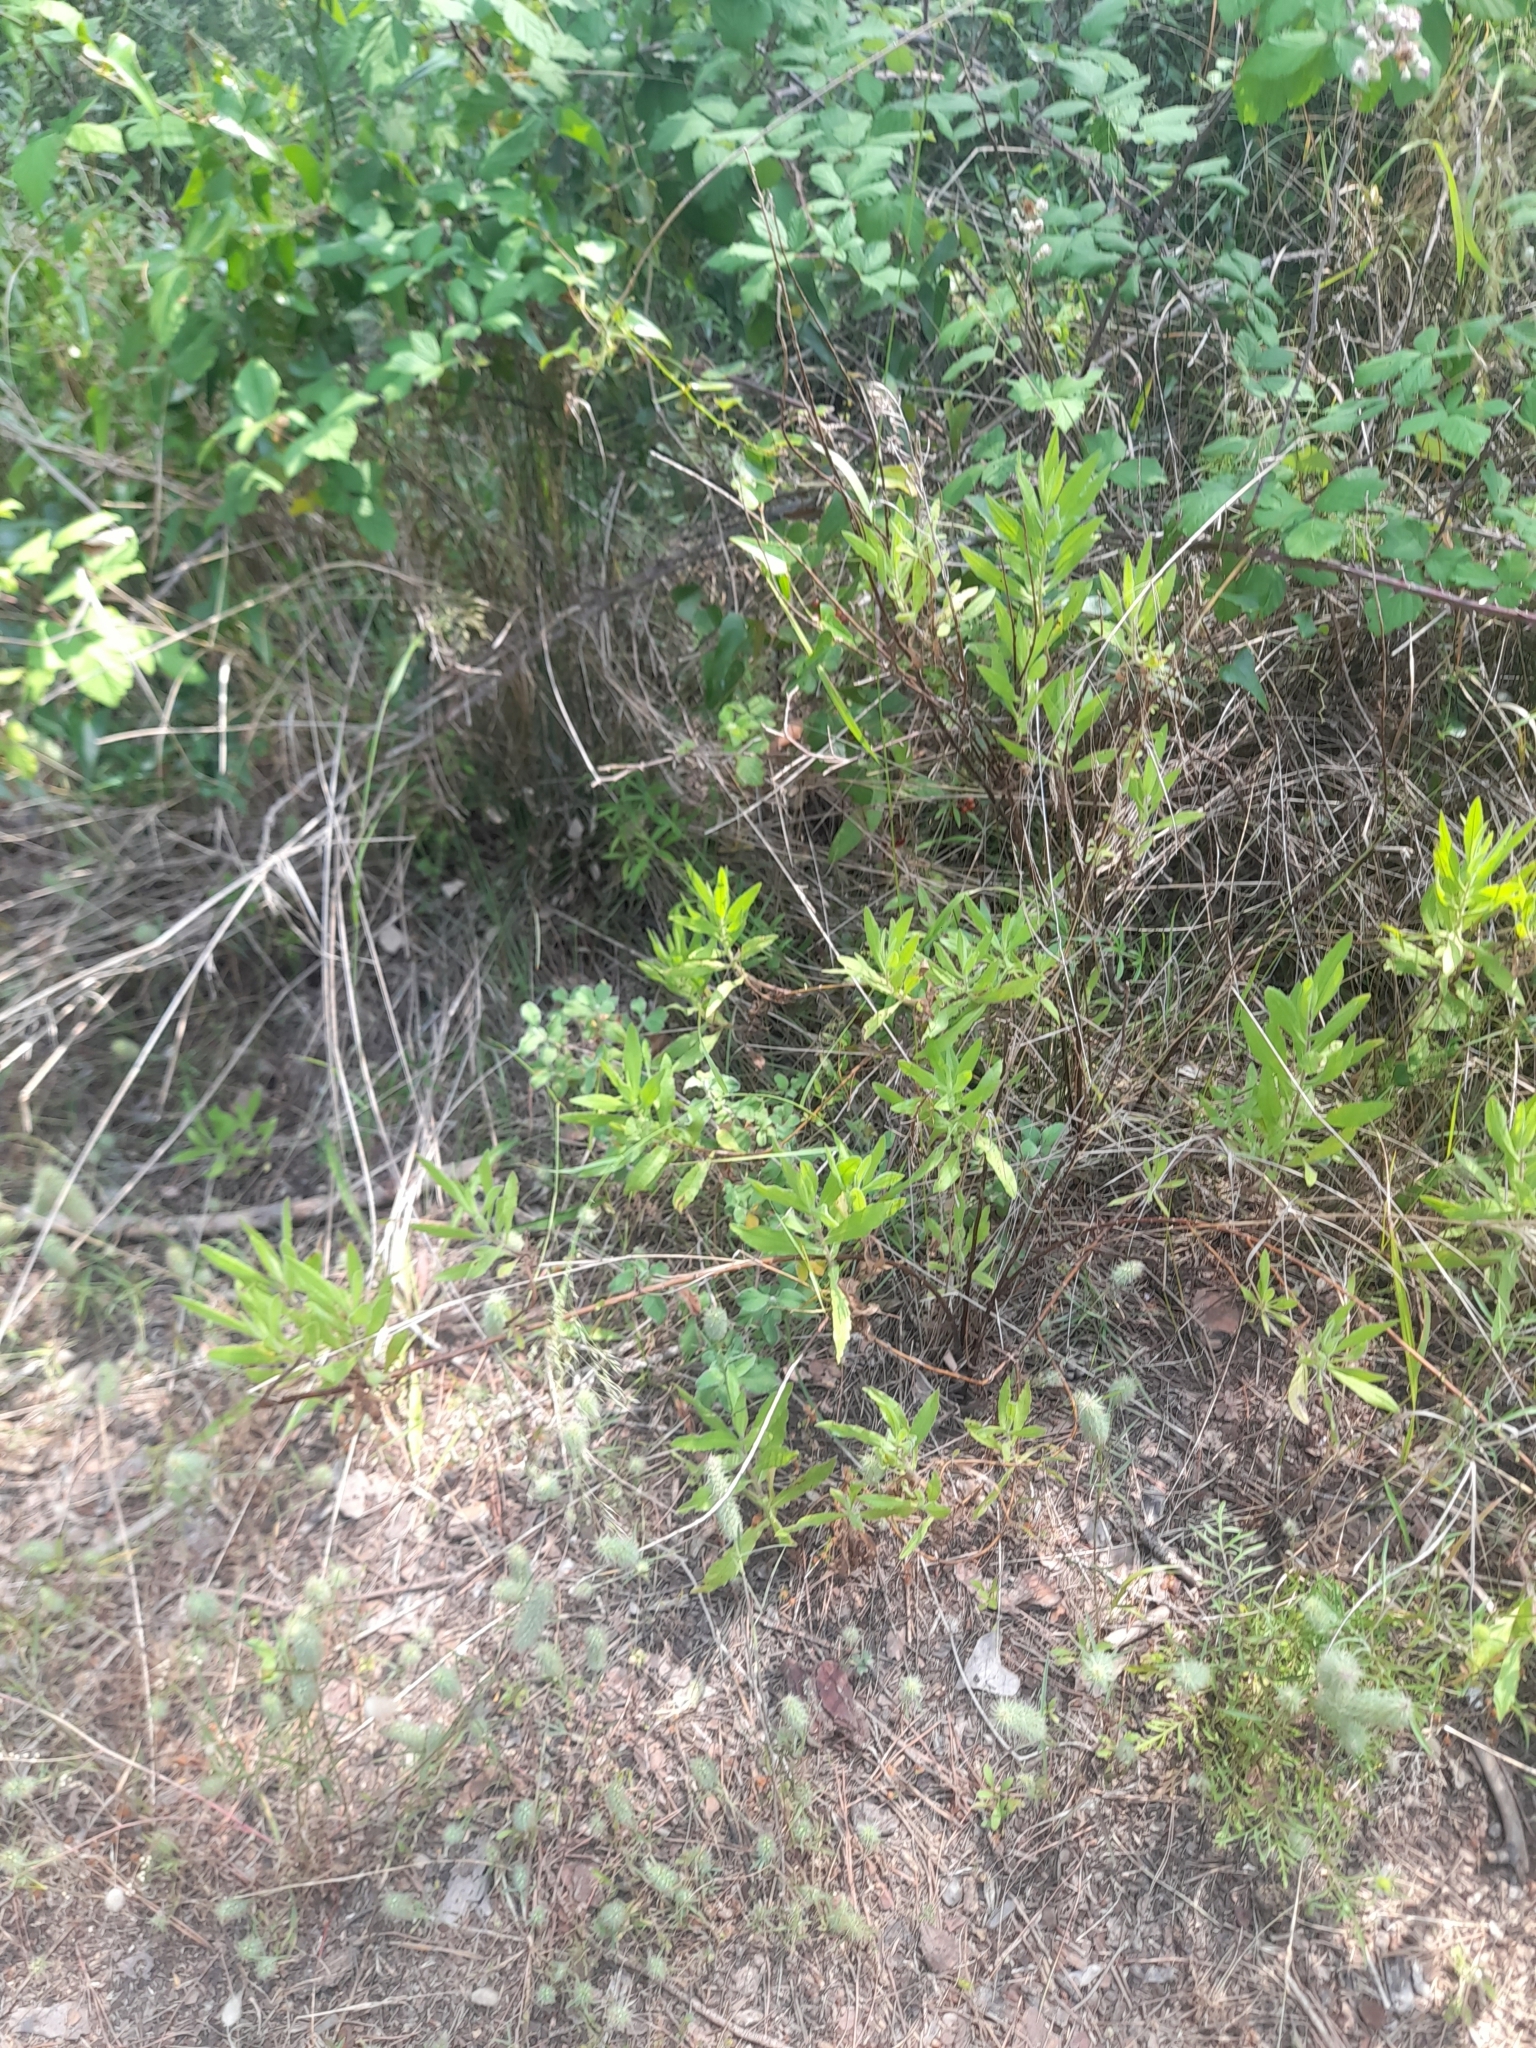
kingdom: Plantae
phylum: Tracheophyta
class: Magnoliopsida
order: Asterales
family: Asteraceae
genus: Dittrichia
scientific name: Dittrichia viscosa
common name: Woody fleabane
